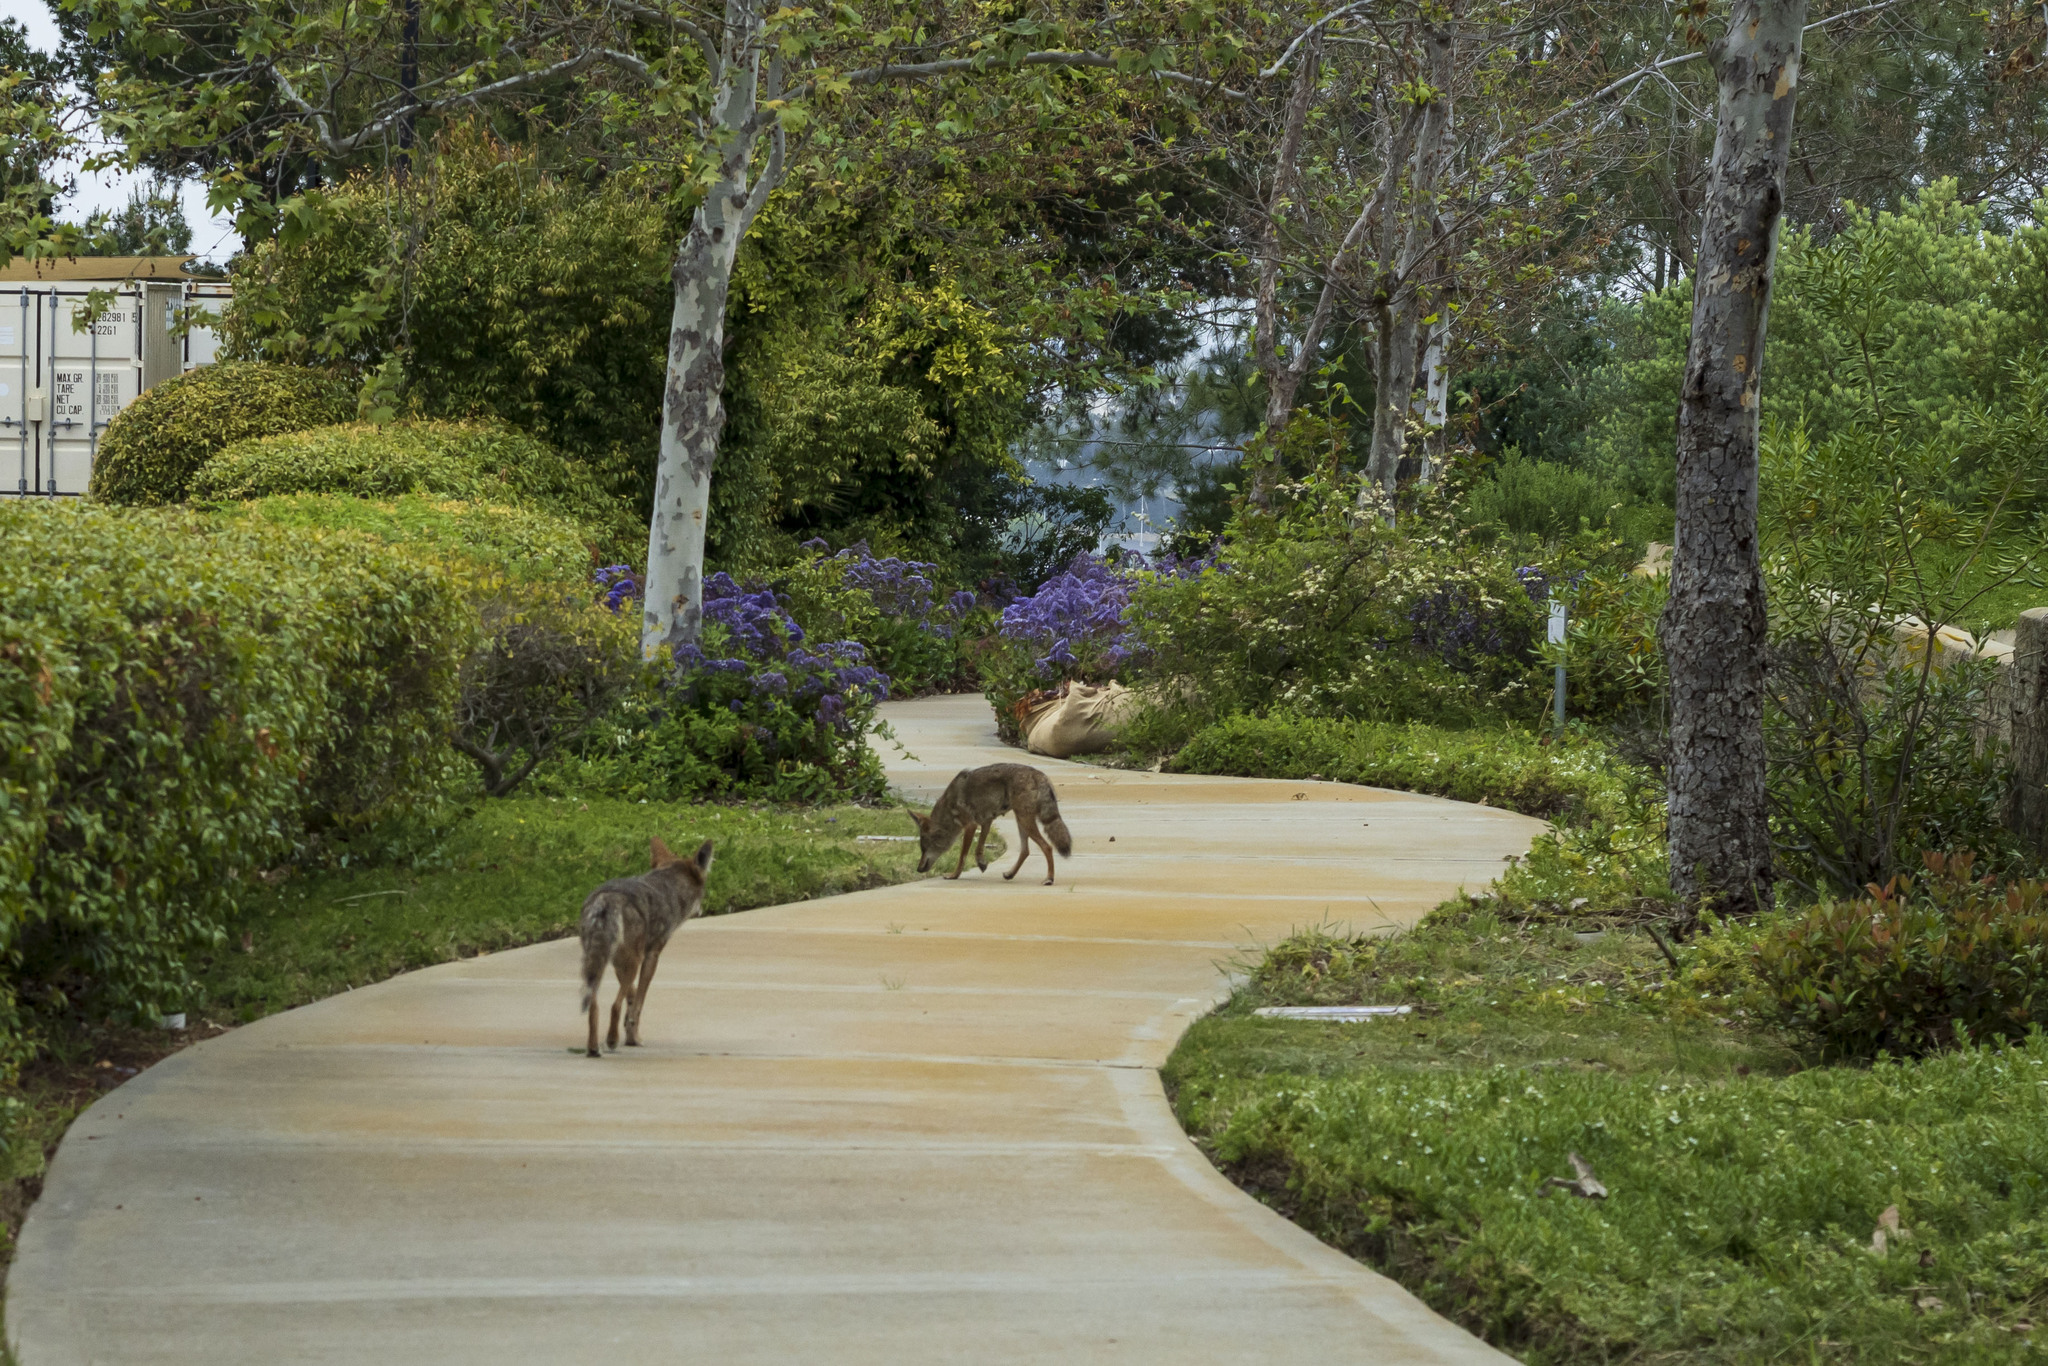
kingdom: Animalia
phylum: Chordata
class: Mammalia
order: Carnivora
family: Canidae
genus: Canis
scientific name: Canis latrans
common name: Coyote
